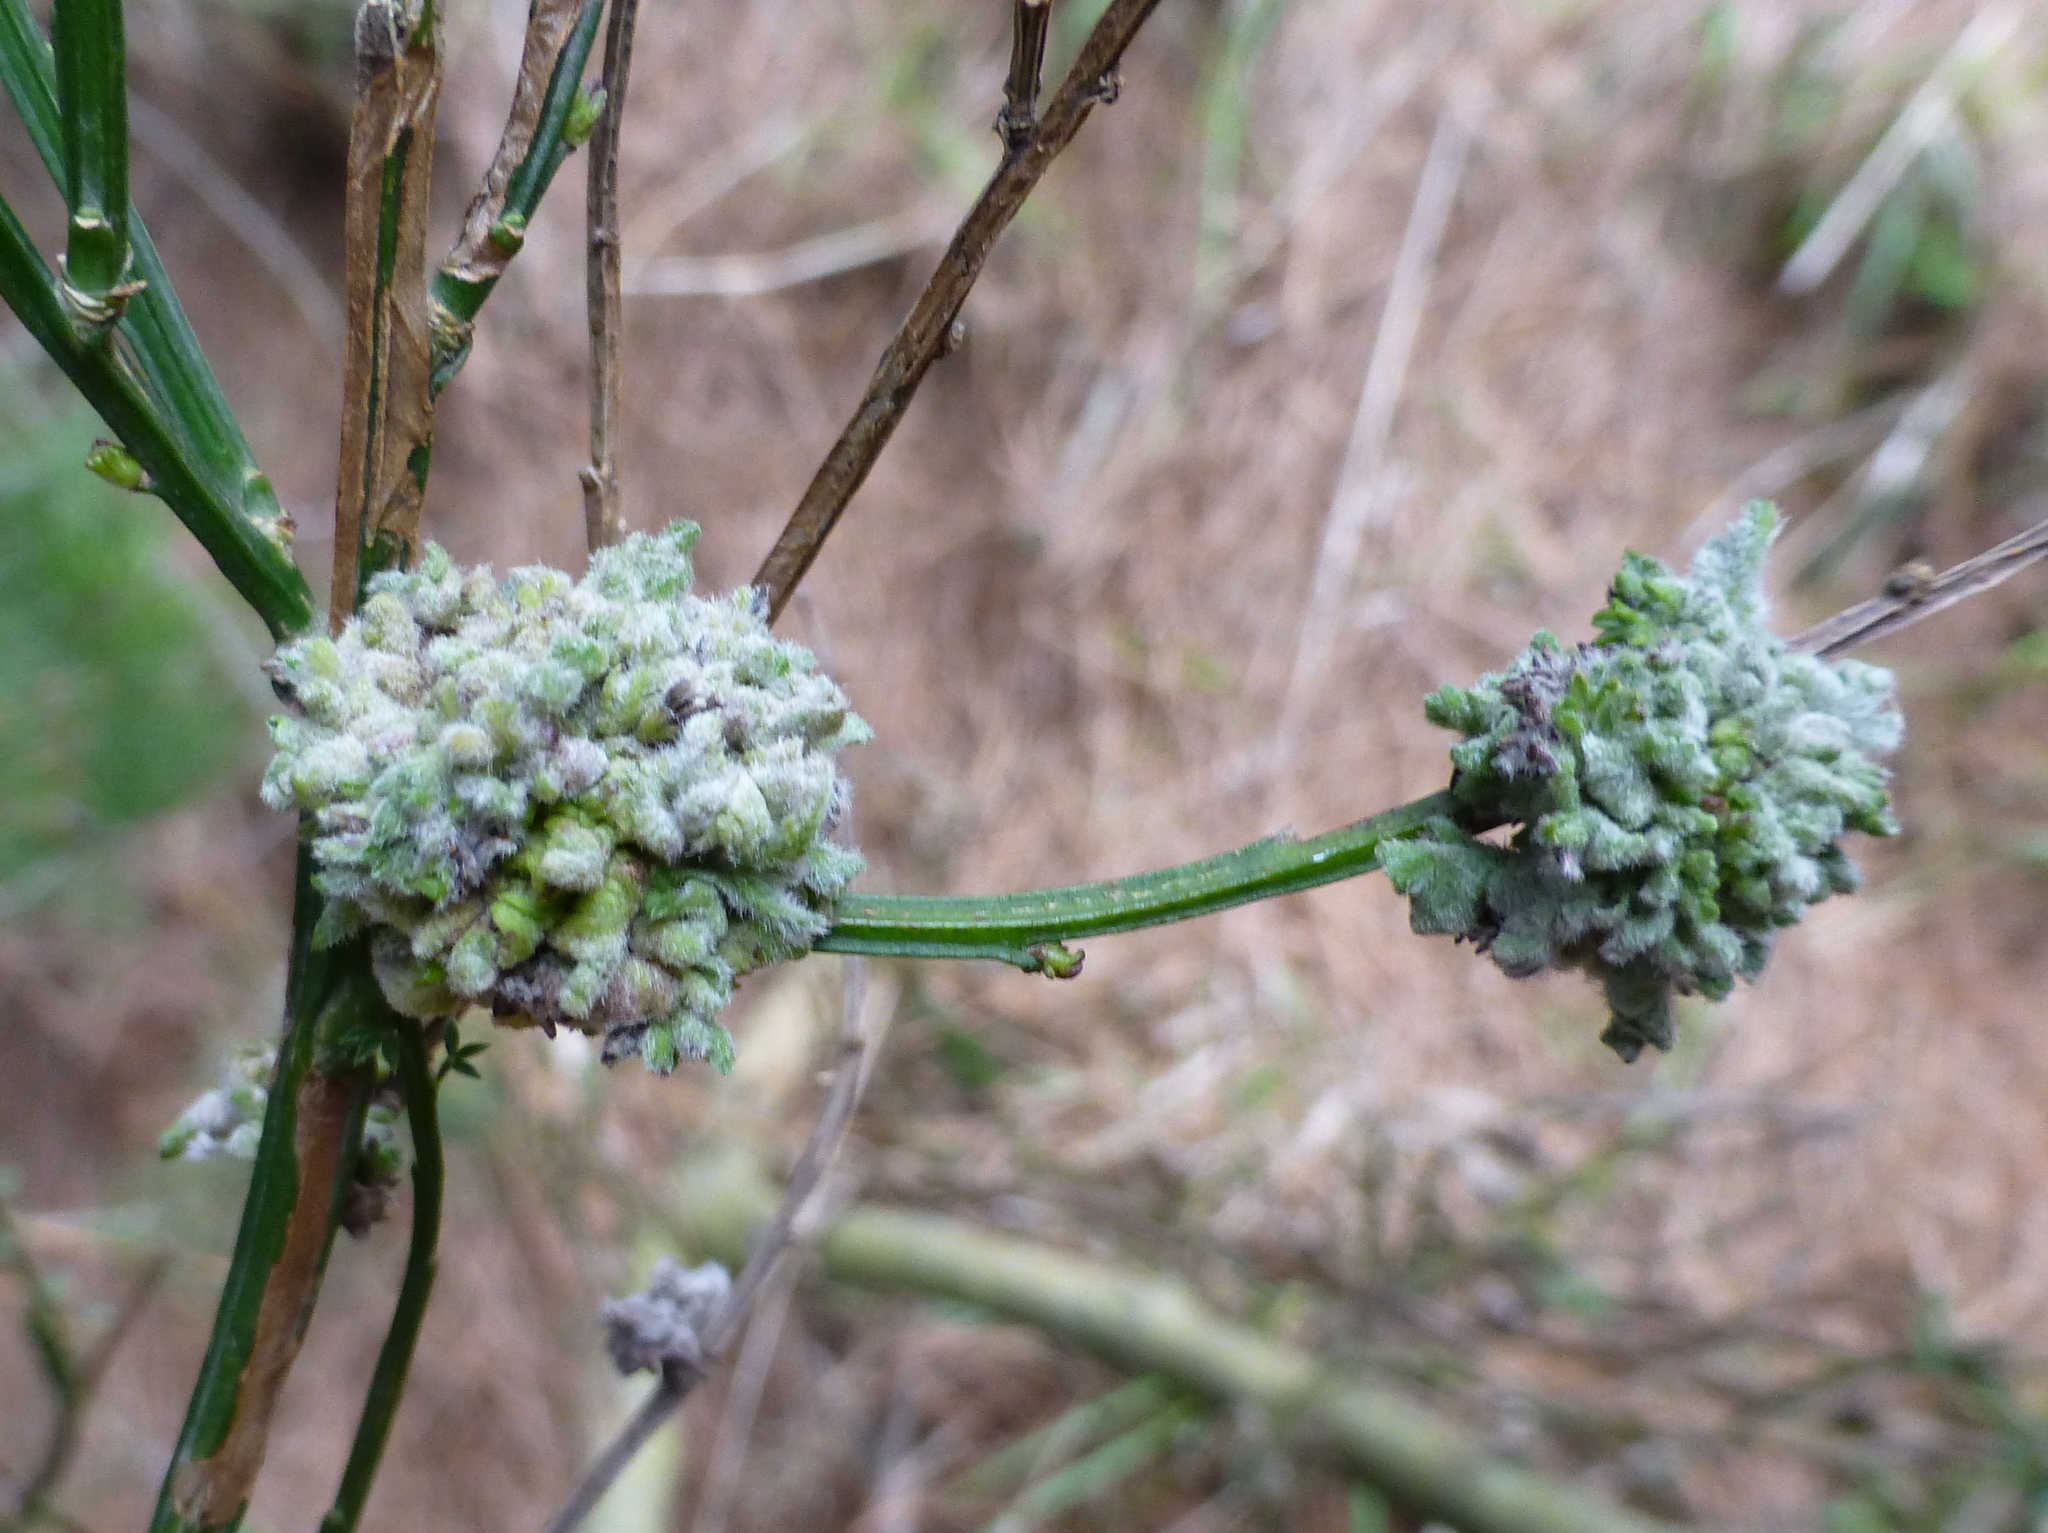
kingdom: Plantae
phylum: Tracheophyta
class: Magnoliopsida
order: Fabales
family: Fabaceae
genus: Cytisus
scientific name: Cytisus scoparius
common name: Scotch broom
